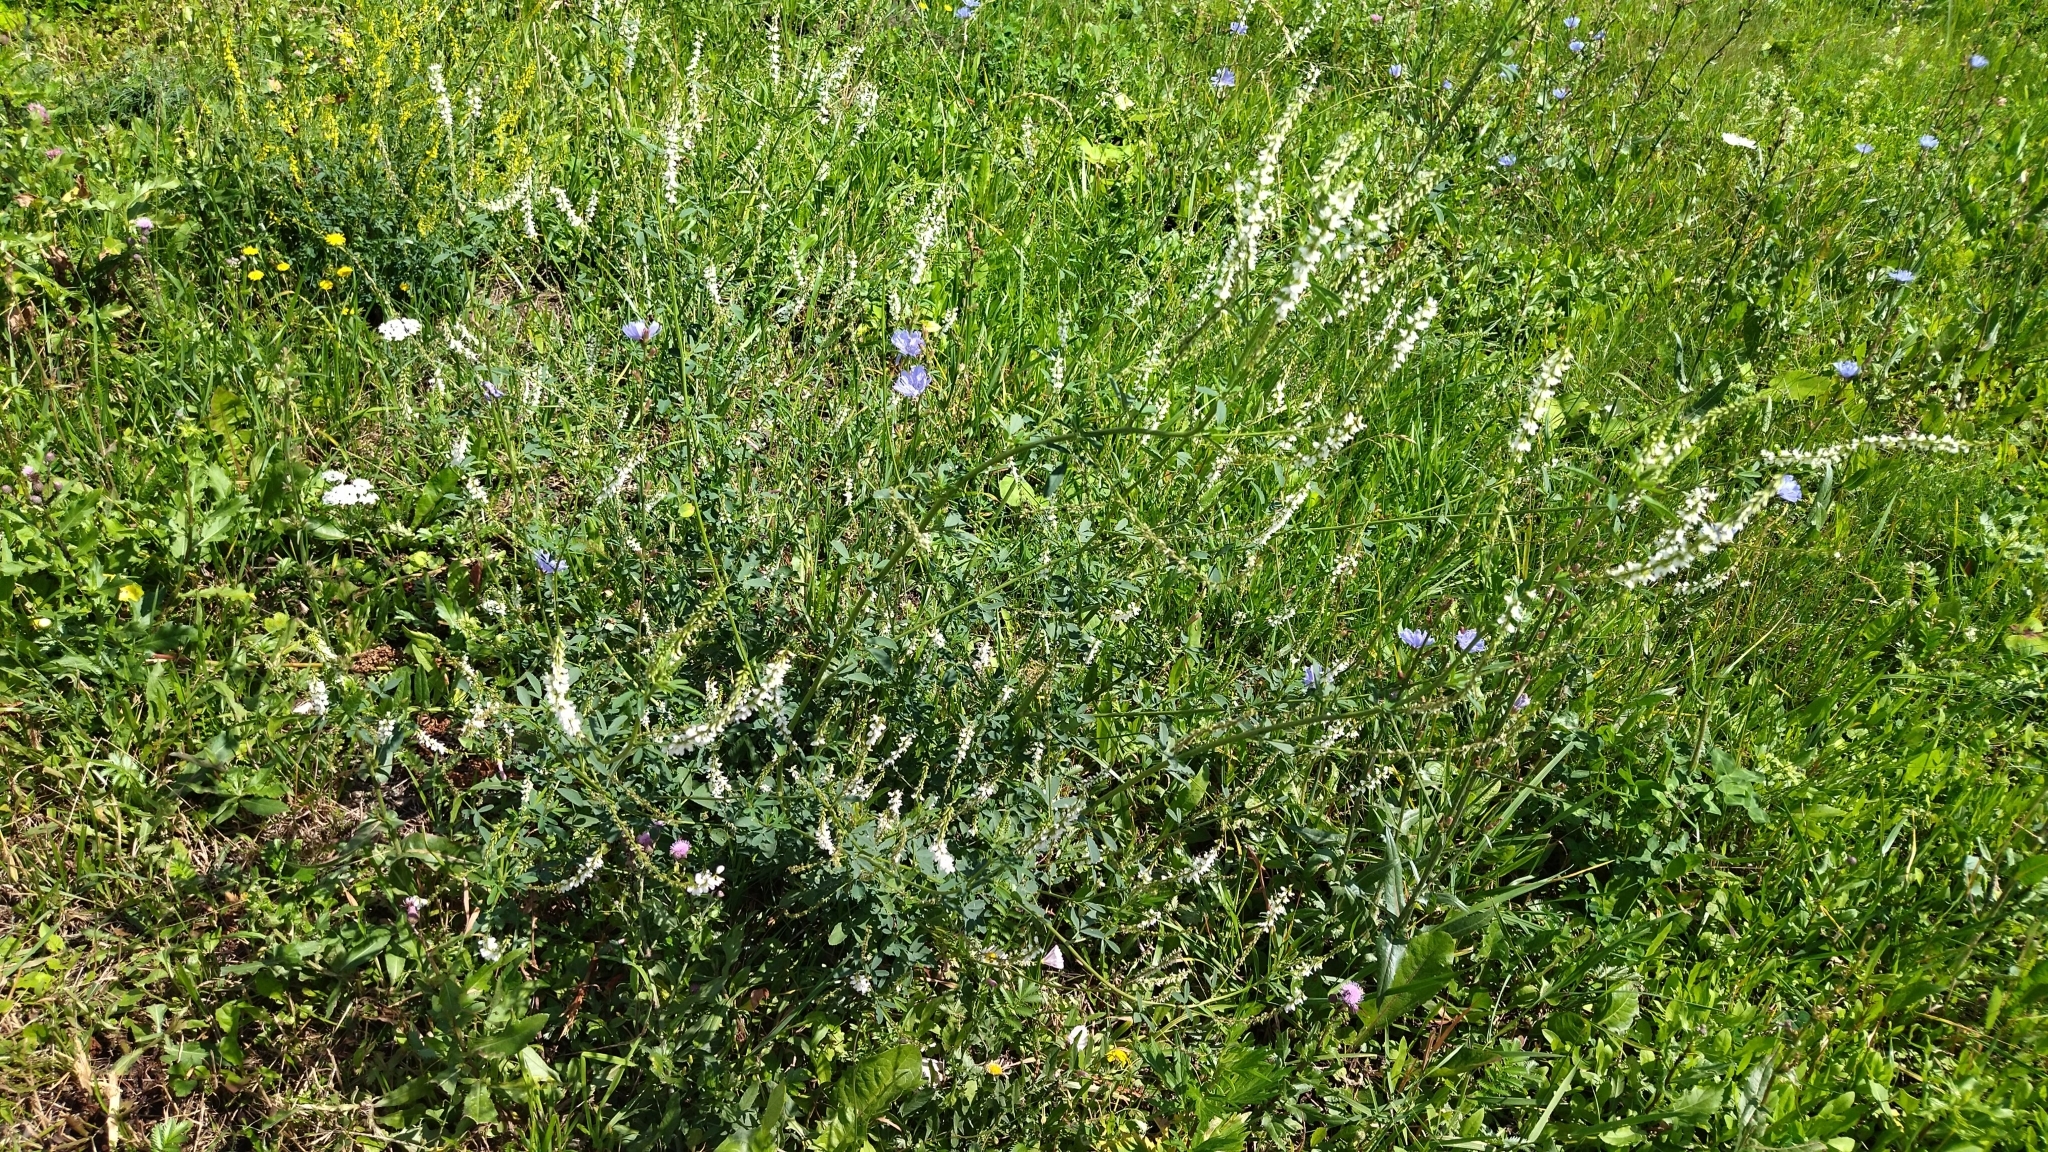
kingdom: Plantae
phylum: Tracheophyta
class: Magnoliopsida
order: Fabales
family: Fabaceae
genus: Melilotus
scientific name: Melilotus albus
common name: White melilot
